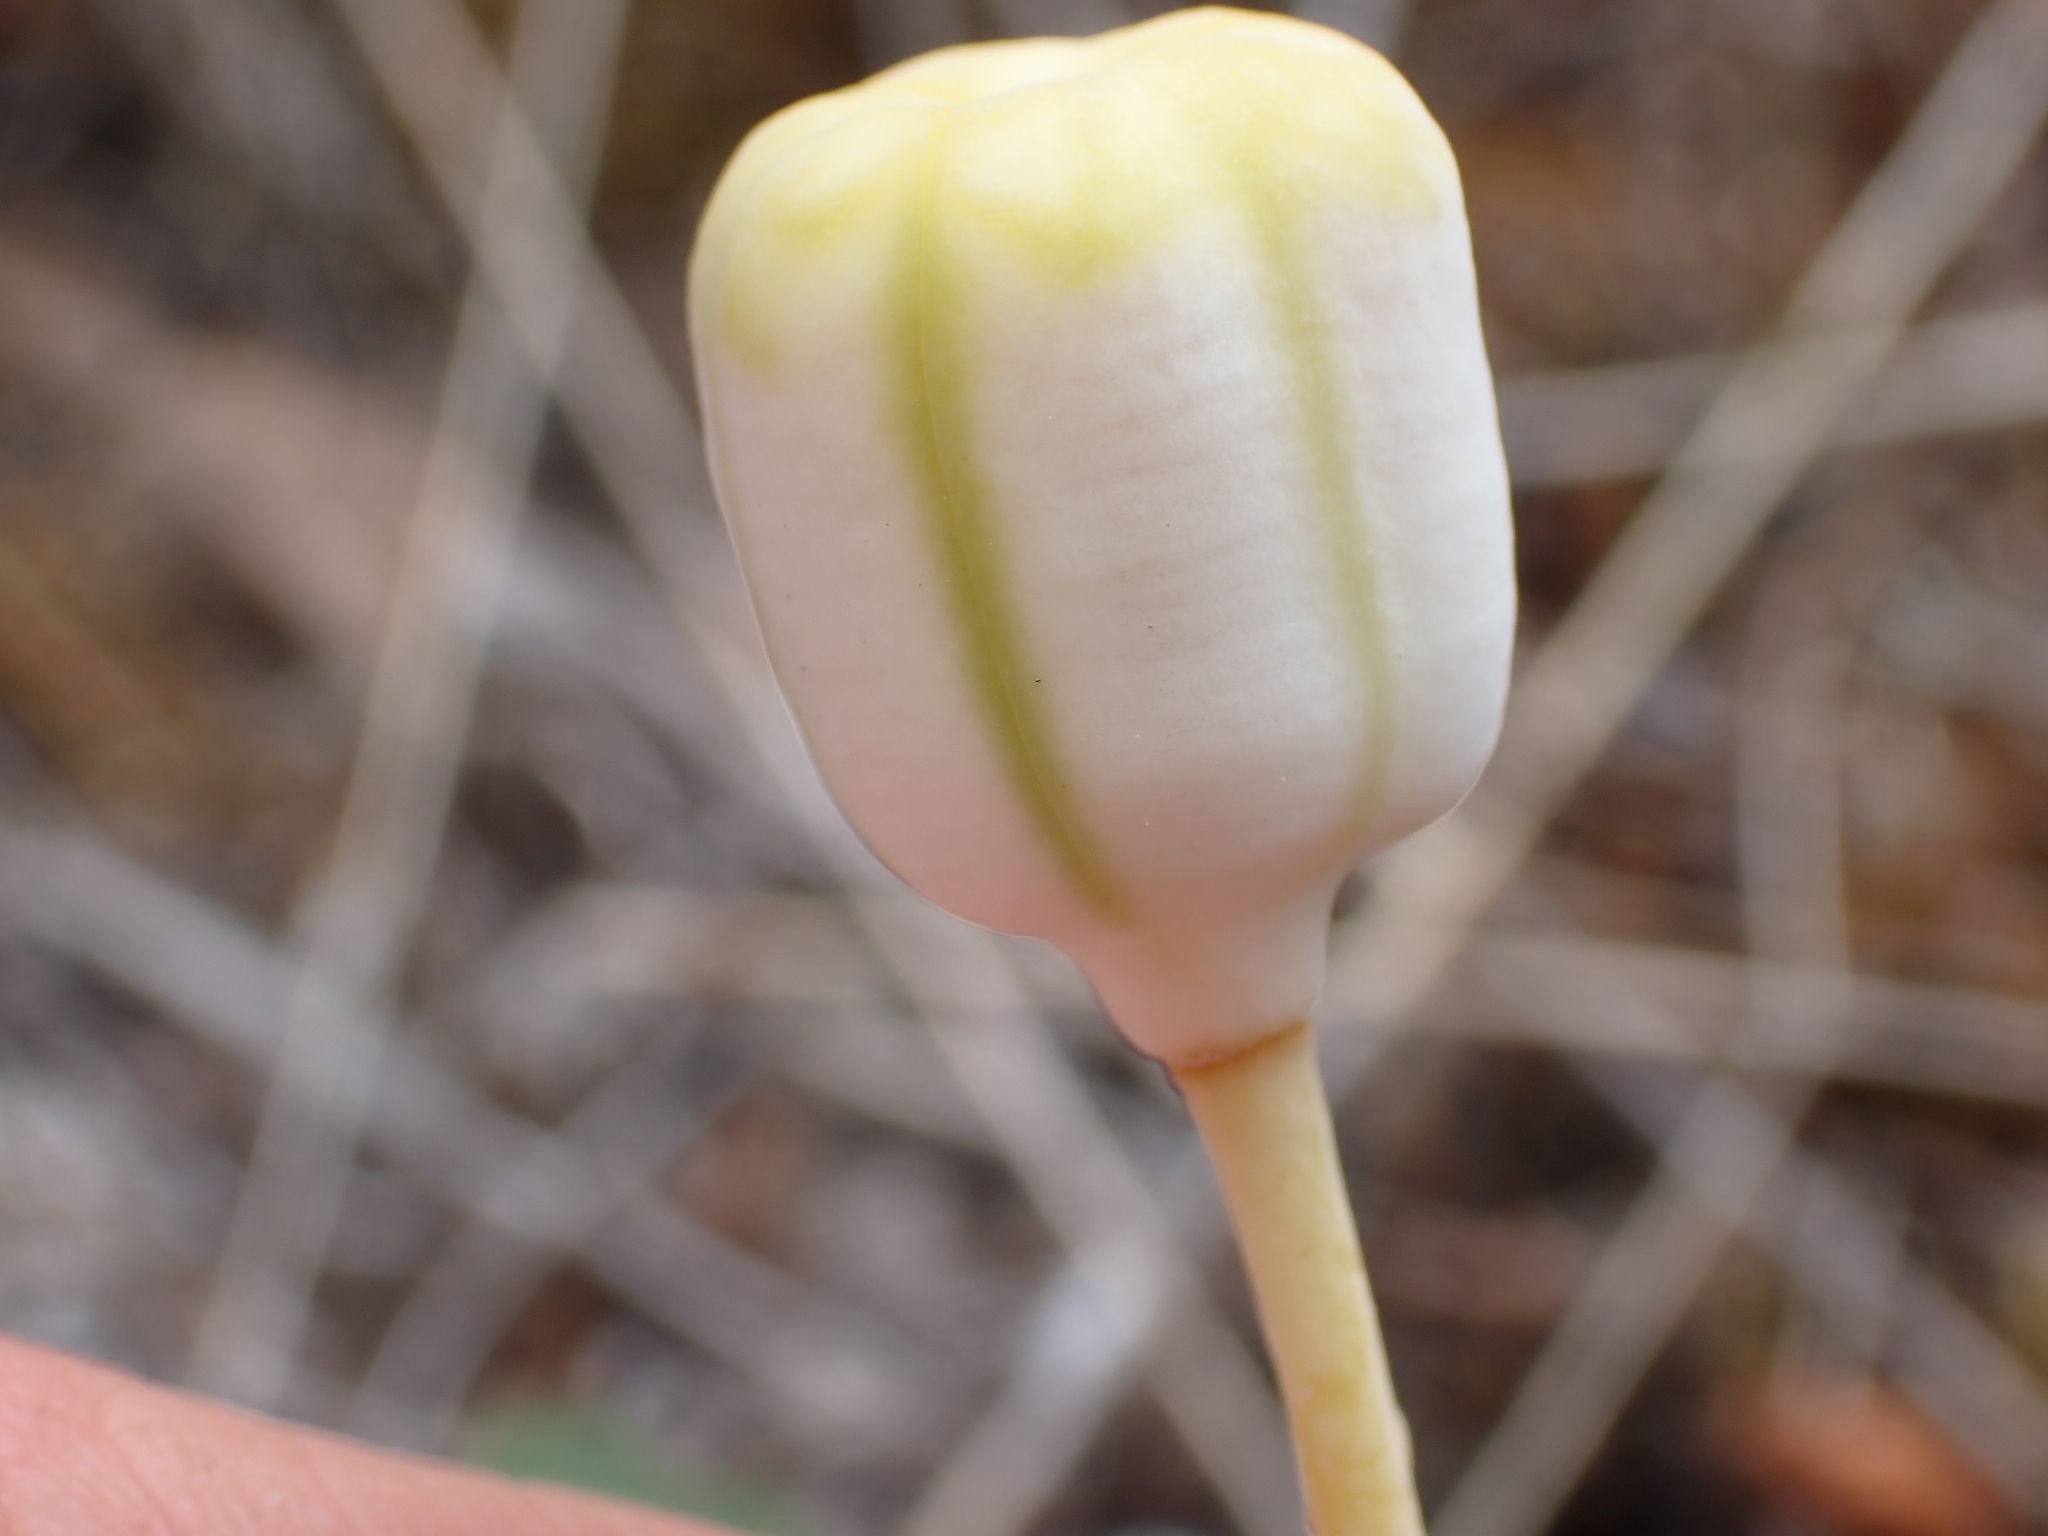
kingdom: Plantae
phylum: Tracheophyta
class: Liliopsida
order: Liliales
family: Liliaceae
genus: Fritillaria
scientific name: Fritillaria pudica
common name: Yellow fritillary
